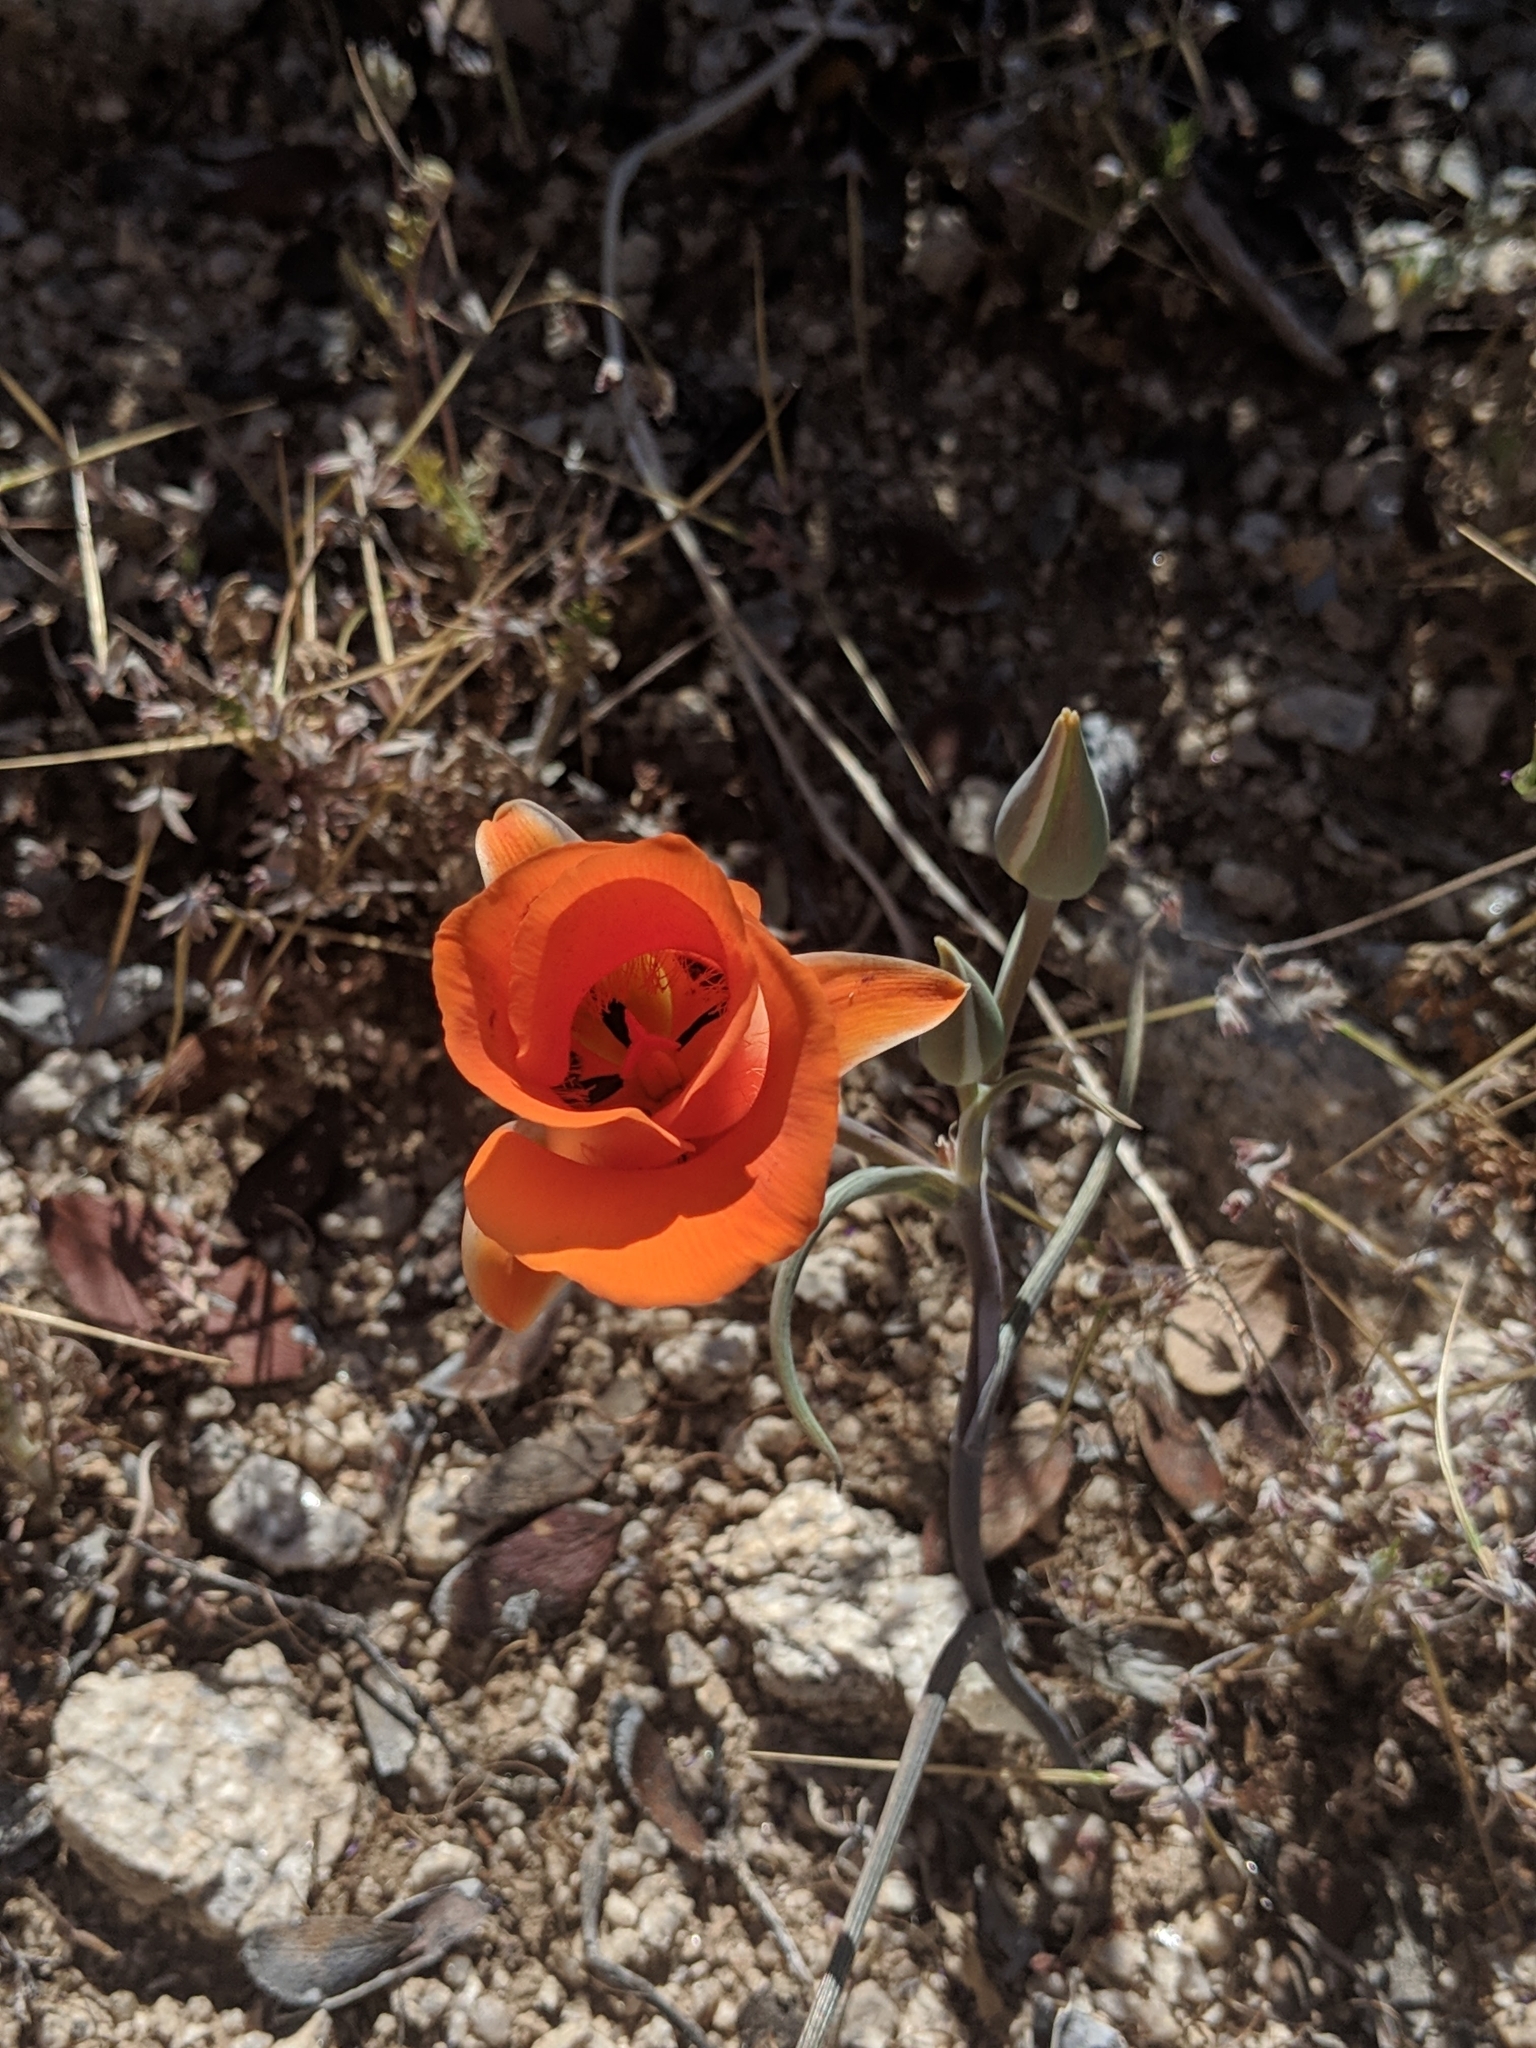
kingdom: Plantae
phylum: Tracheophyta
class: Liliopsida
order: Liliales
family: Liliaceae
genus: Calochortus
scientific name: Calochortus kennedyi
